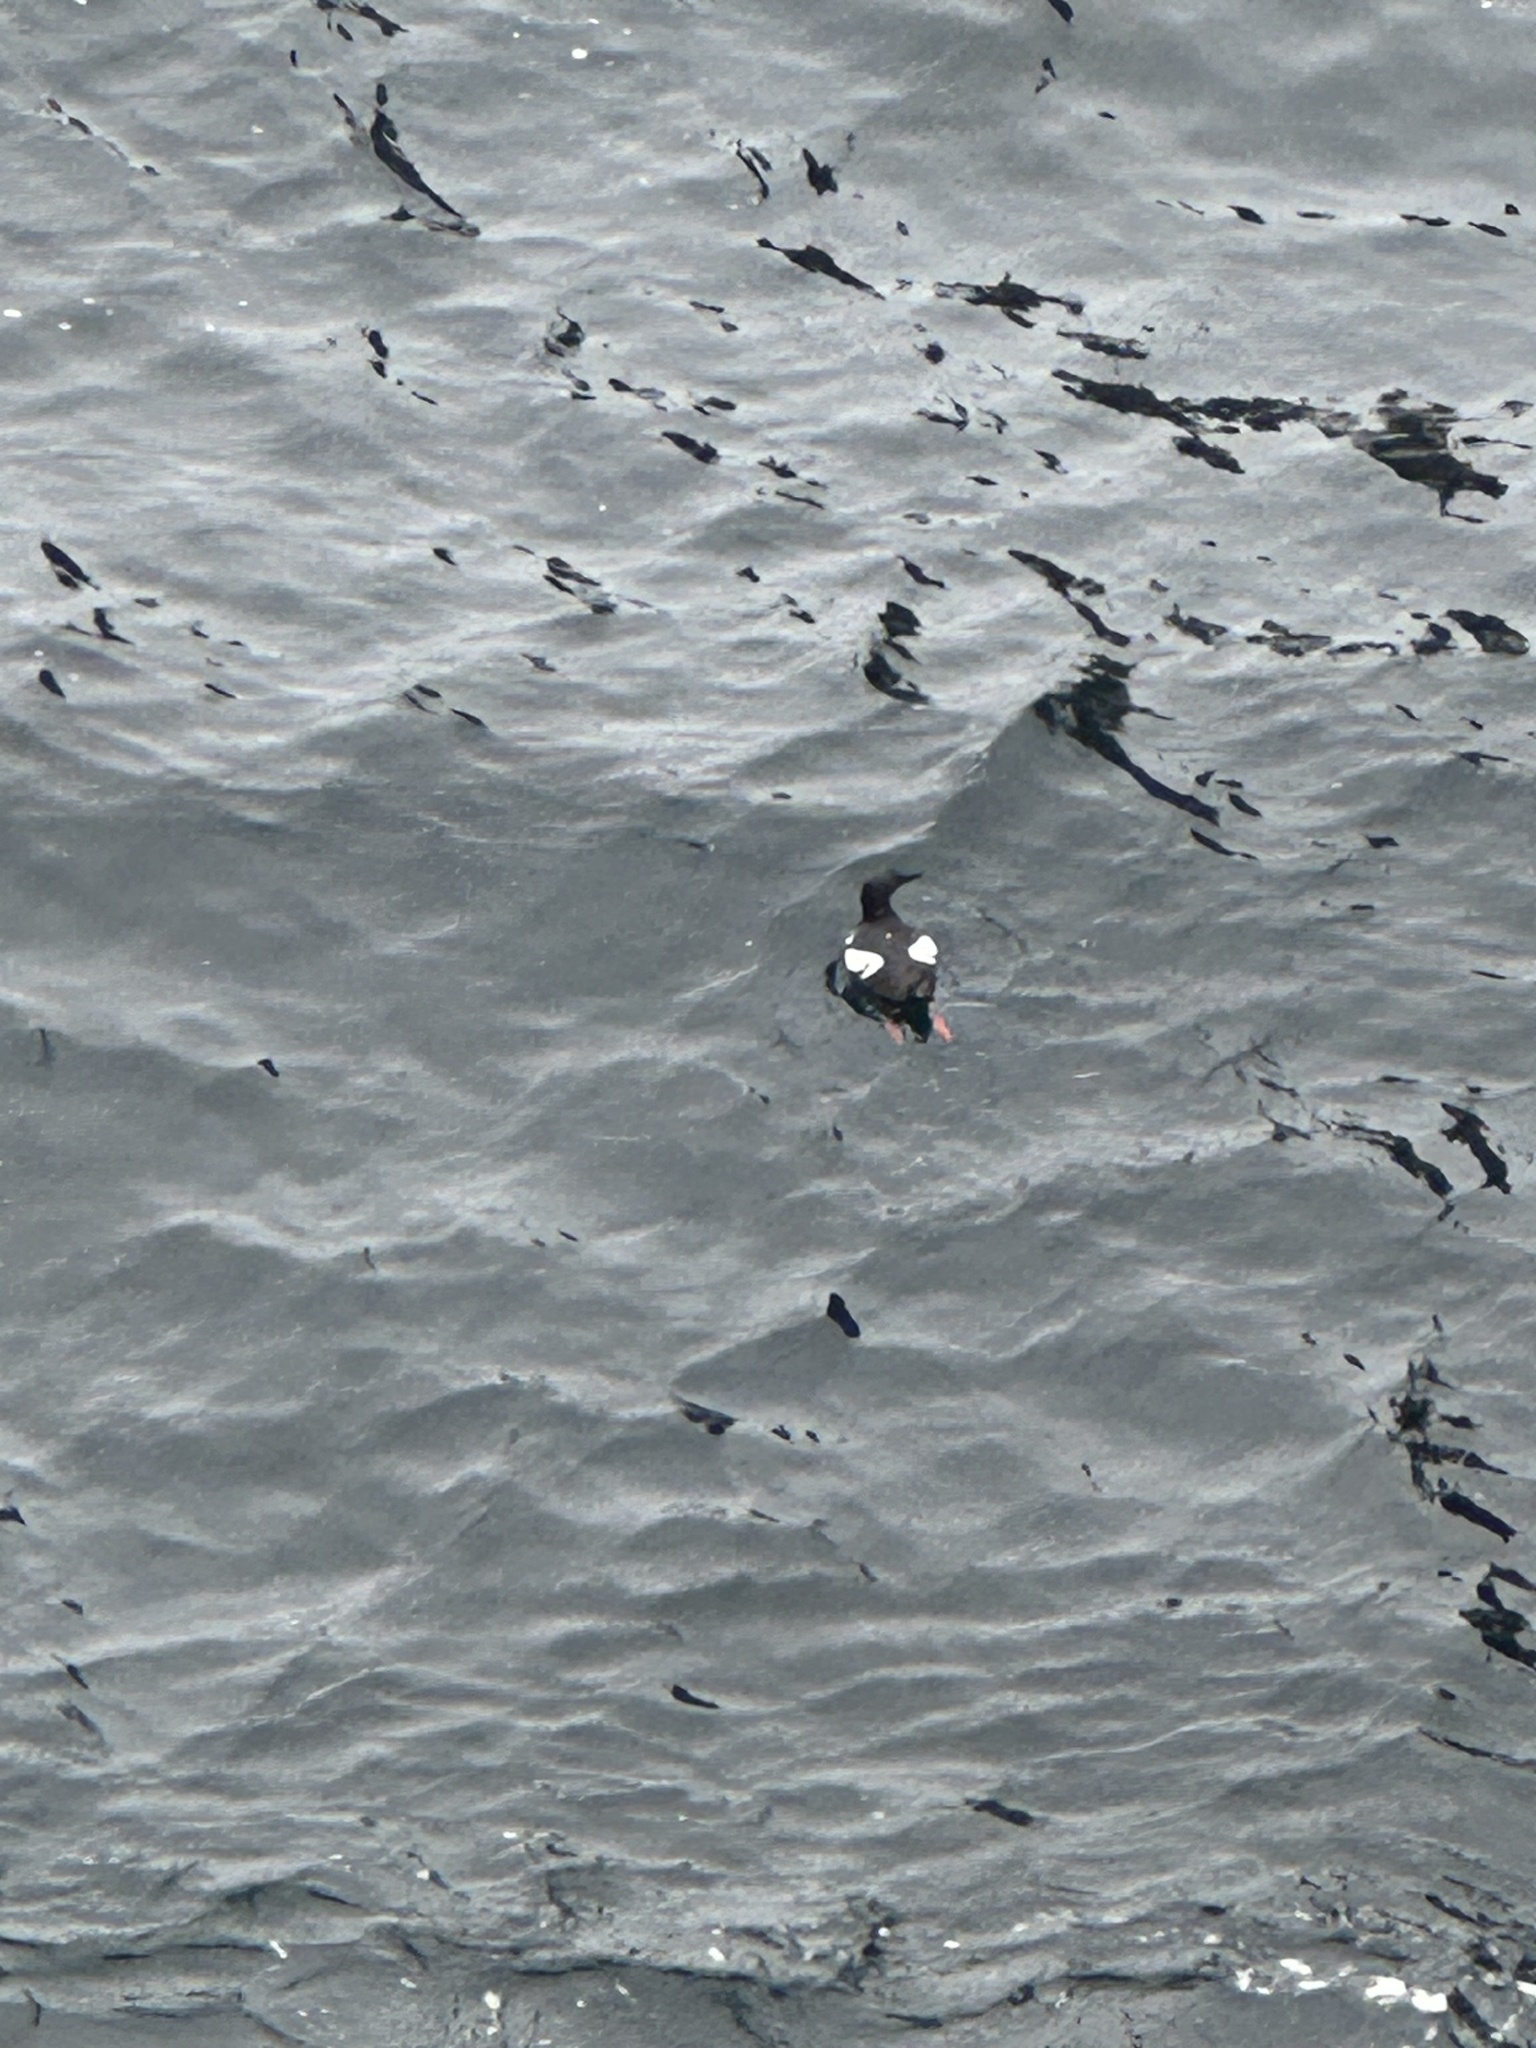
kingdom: Animalia
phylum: Chordata
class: Aves
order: Charadriiformes
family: Alcidae
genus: Cepphus
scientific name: Cepphus columba
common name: Pigeon guillemot
